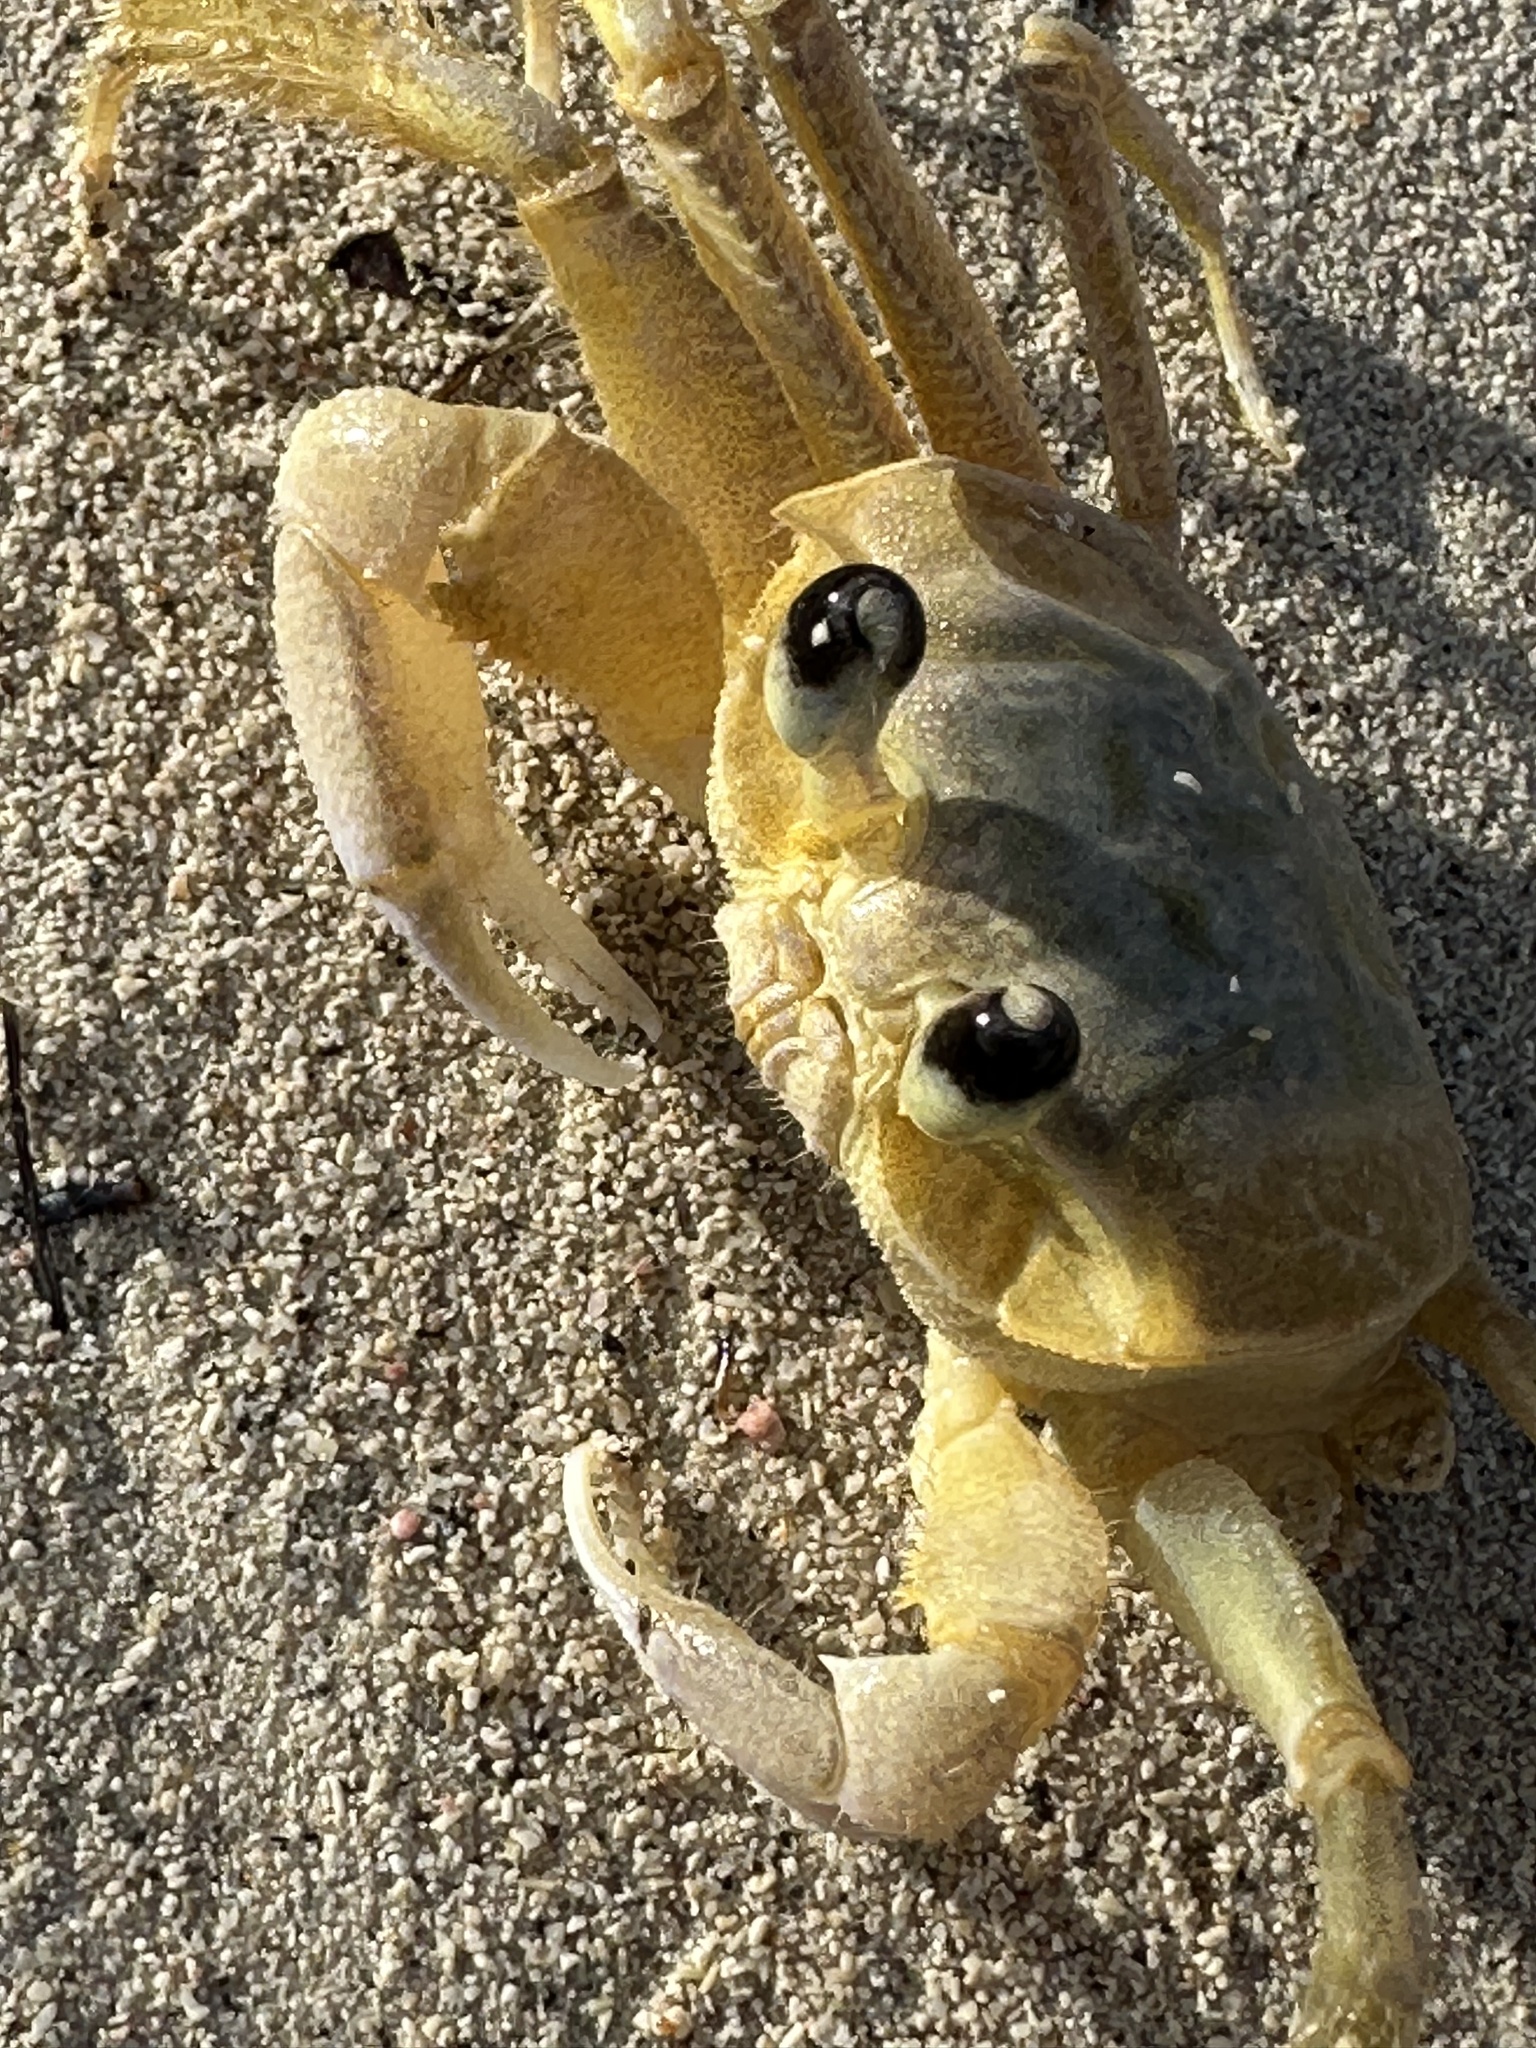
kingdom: Animalia
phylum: Arthropoda
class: Malacostraca
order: Decapoda
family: Ocypodidae
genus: Ocypode
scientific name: Ocypode quadrata
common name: Ghost crab
